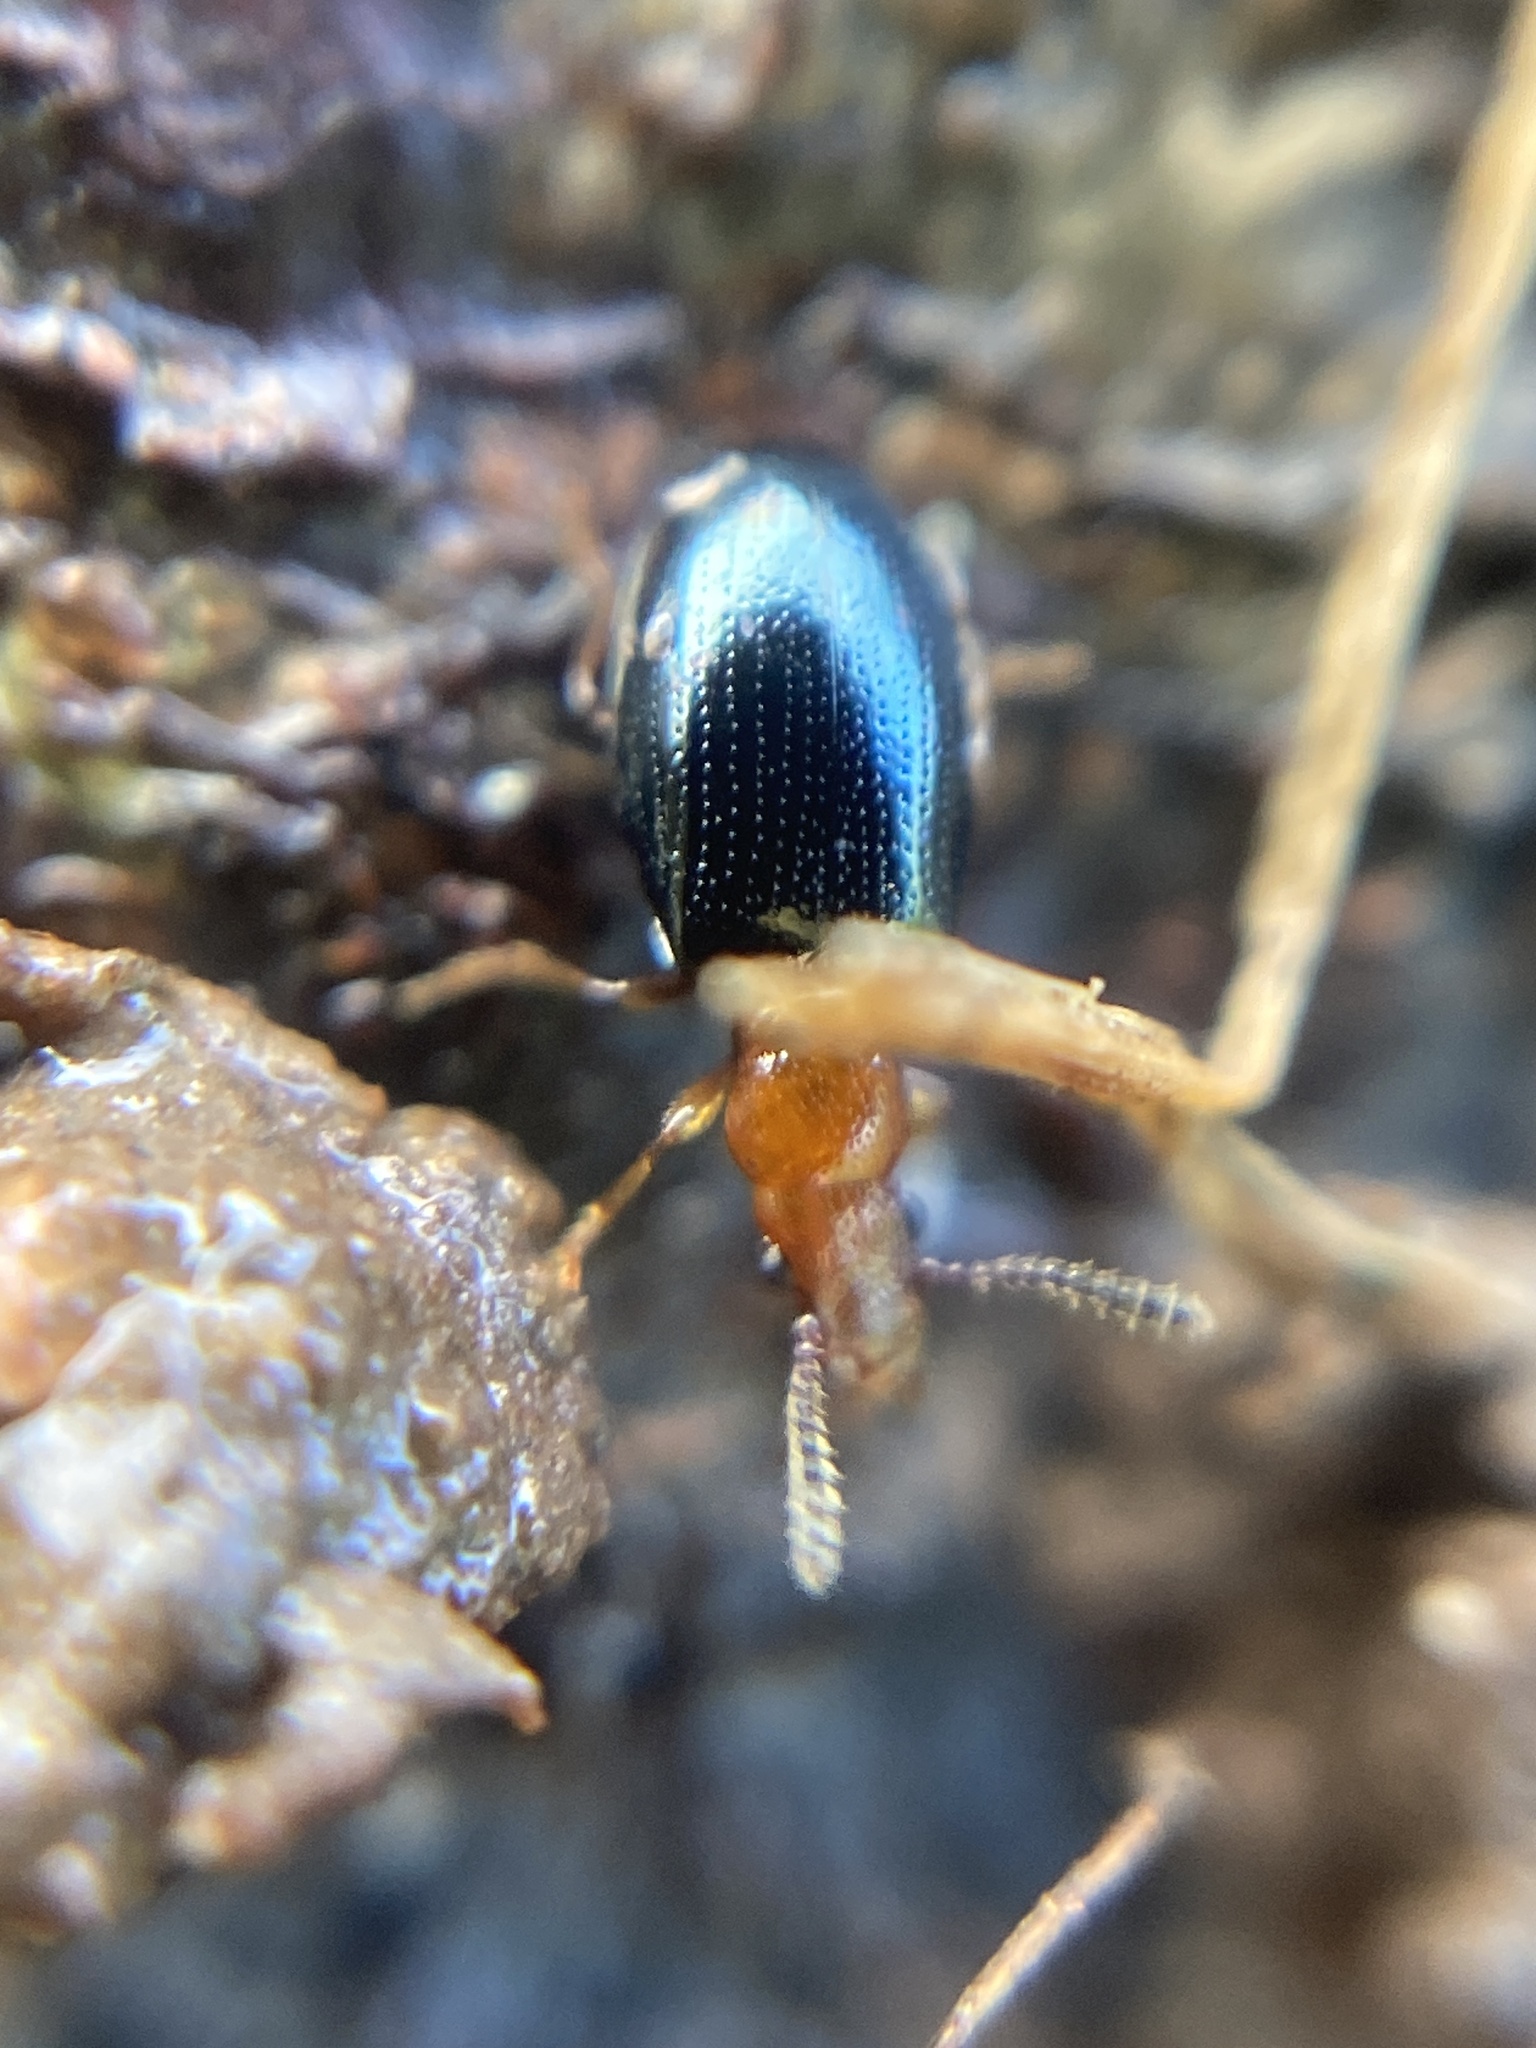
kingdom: Animalia
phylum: Arthropoda
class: Insecta
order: Coleoptera
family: Salpingidae
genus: Vincenzellus
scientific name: Vincenzellus ruficollis
